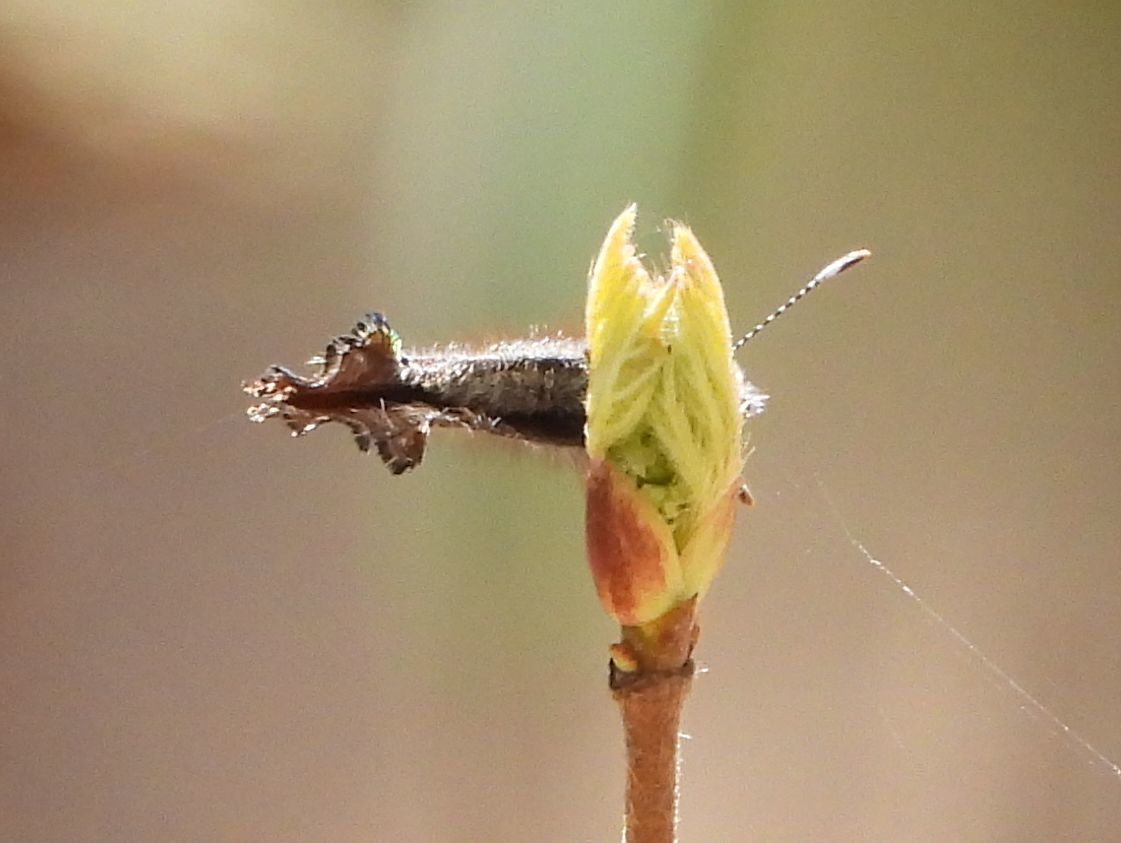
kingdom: Animalia
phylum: Arthropoda
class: Insecta
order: Lepidoptera
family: Lycaenidae
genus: Incisalia
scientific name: Incisalia henrici
